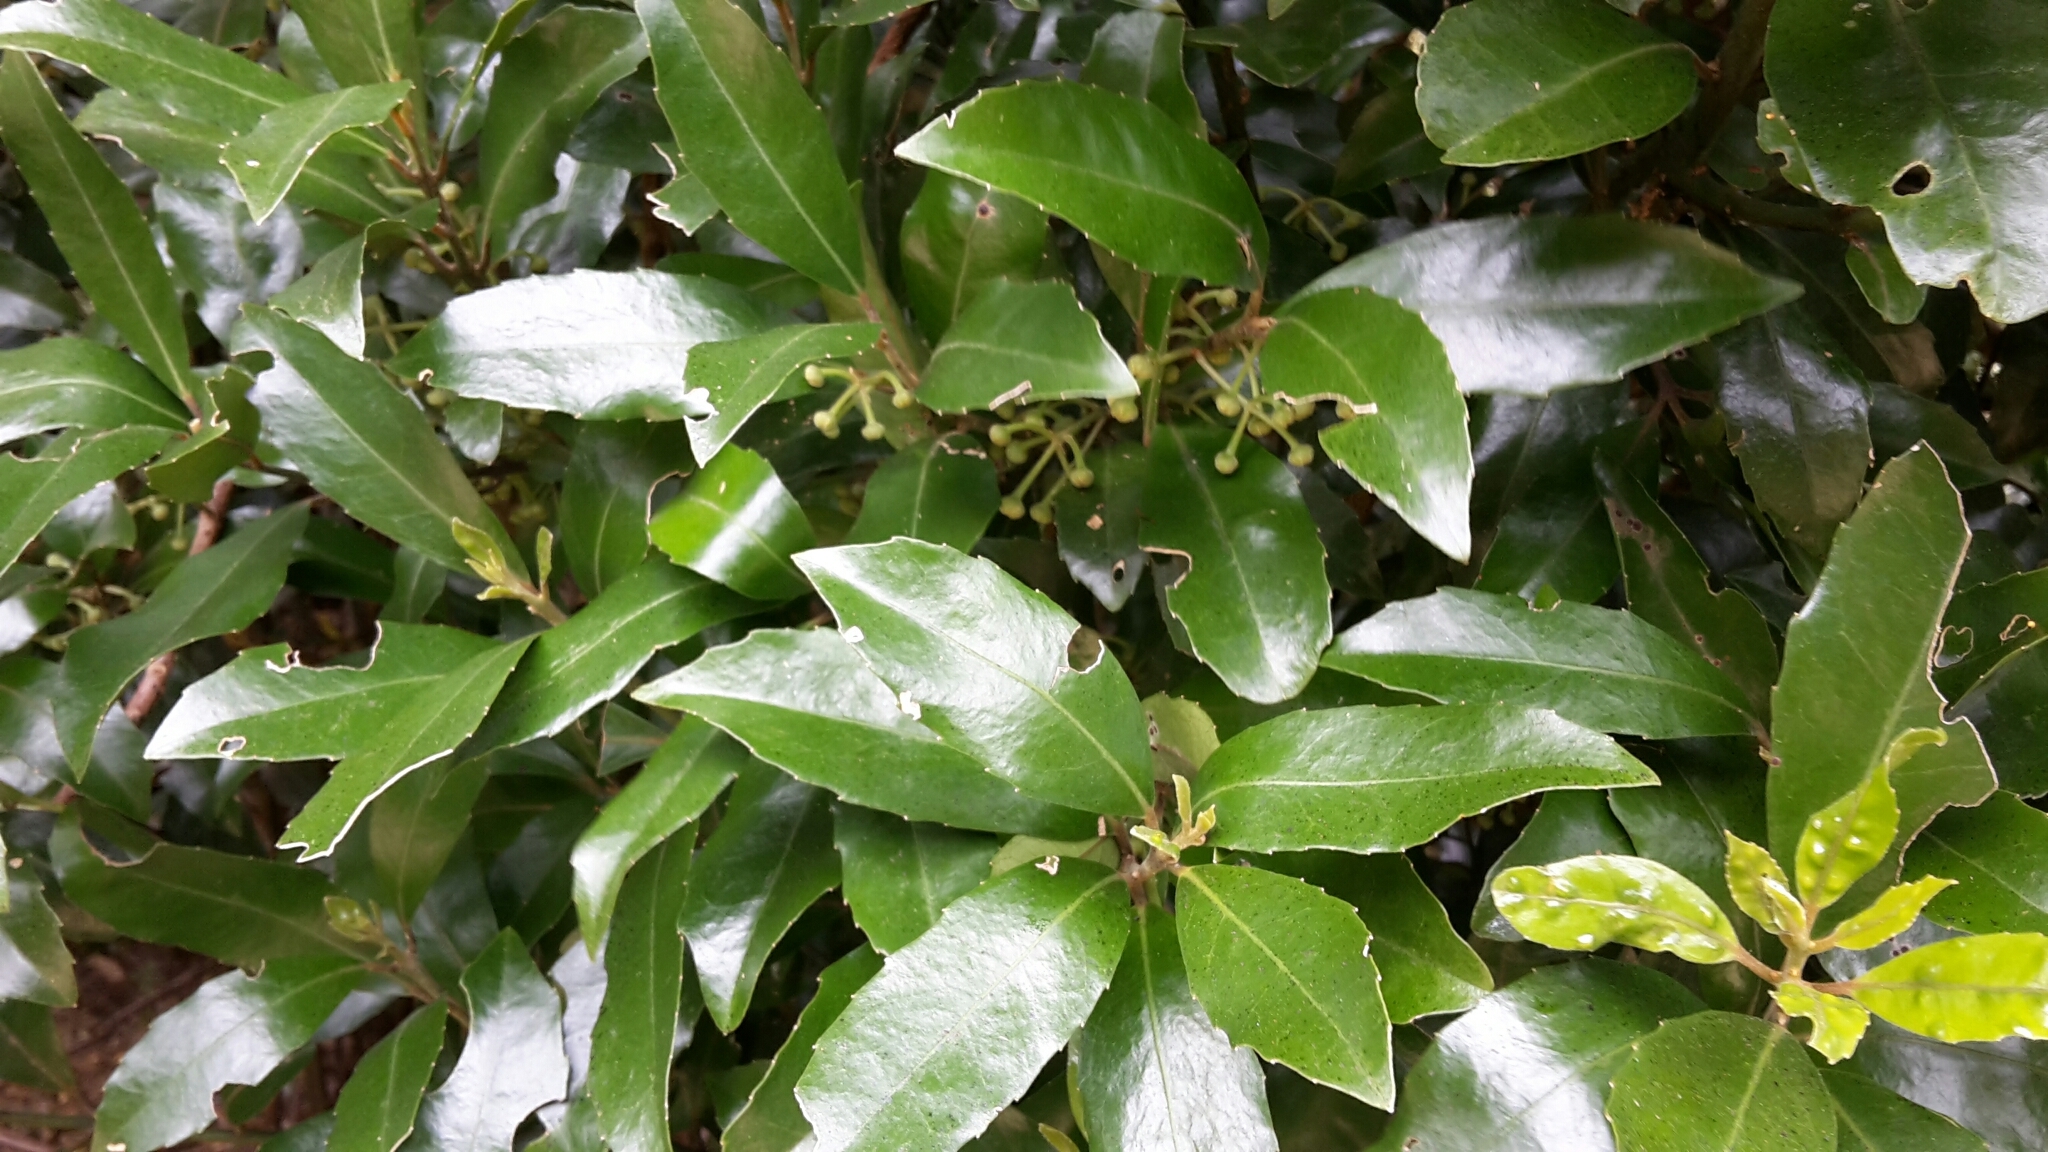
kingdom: Plantae
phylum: Tracheophyta
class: Magnoliopsida
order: Laurales
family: Monimiaceae
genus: Hedycarya
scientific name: Hedycarya arborea
